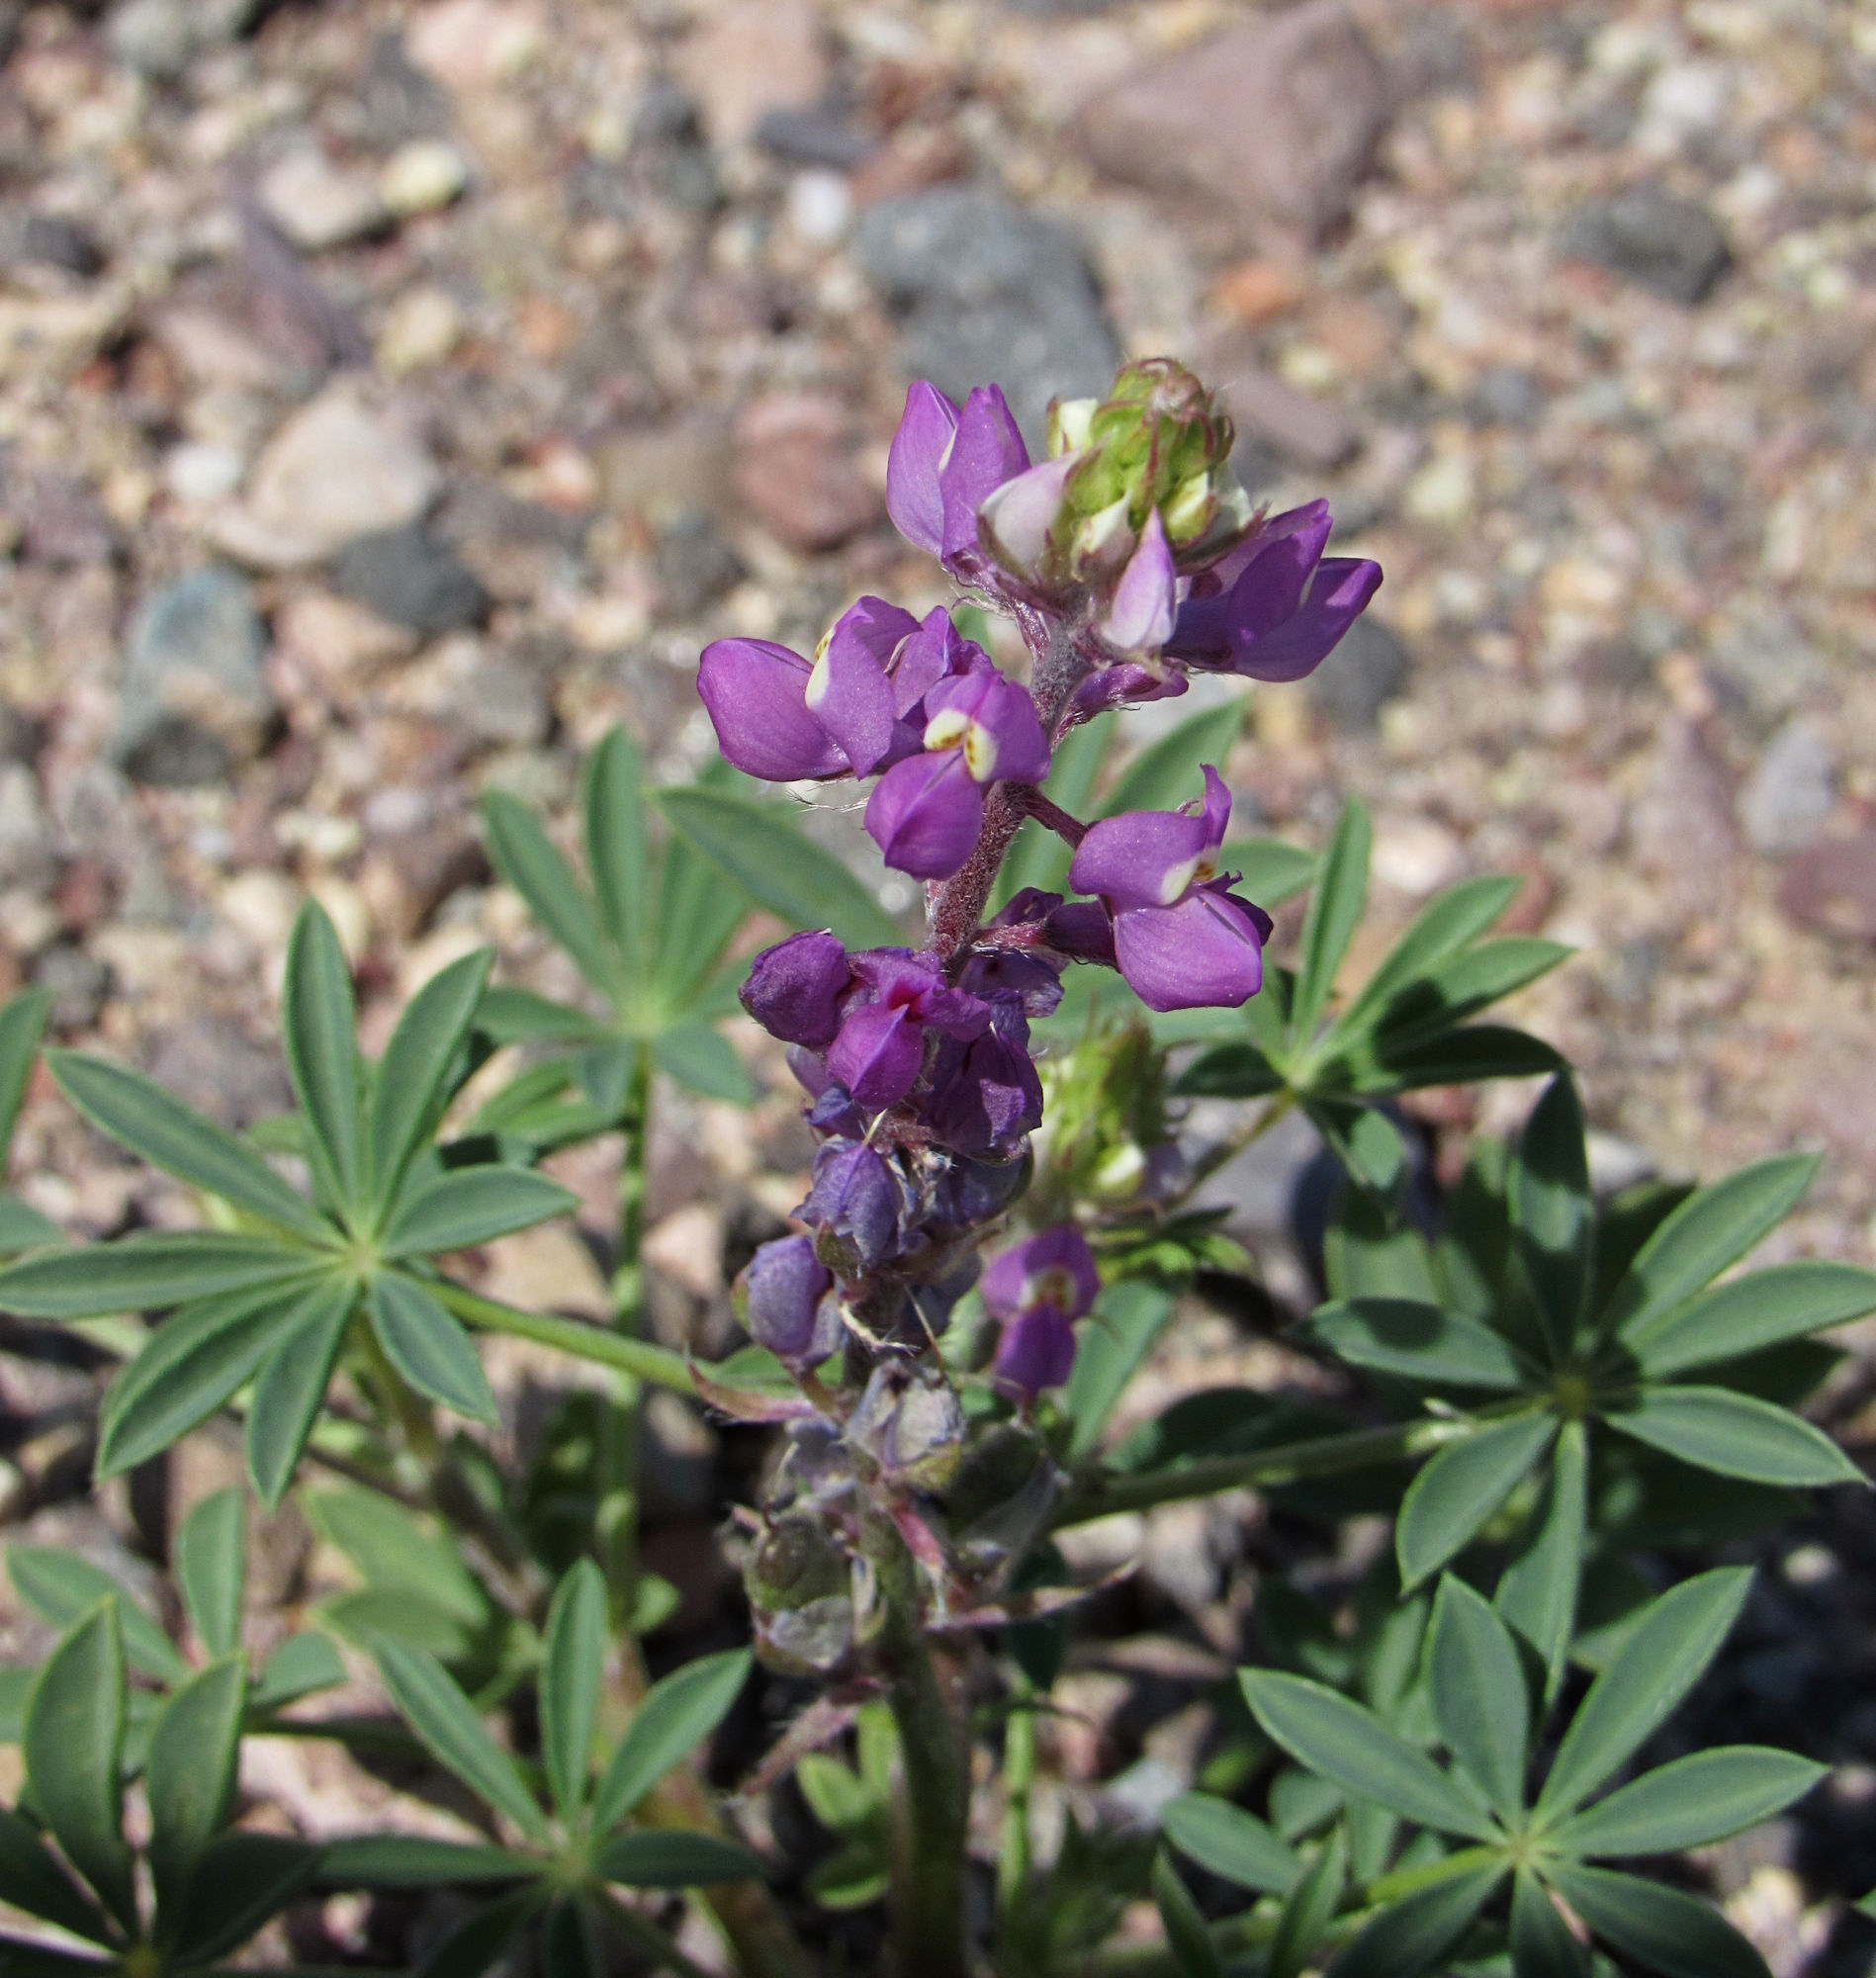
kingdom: Plantae
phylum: Tracheophyta
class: Magnoliopsida
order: Fabales
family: Fabaceae
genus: Lupinus
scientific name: Lupinus arizonicus
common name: Arizona lupine
